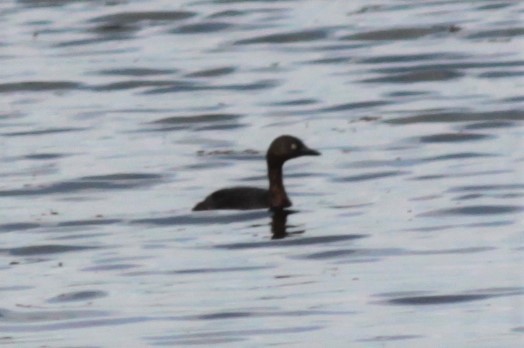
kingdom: Animalia
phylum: Chordata
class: Aves
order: Podicipediformes
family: Podicipedidae
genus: Poliocephalus
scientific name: Poliocephalus rufopectus
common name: New zealand grebe
